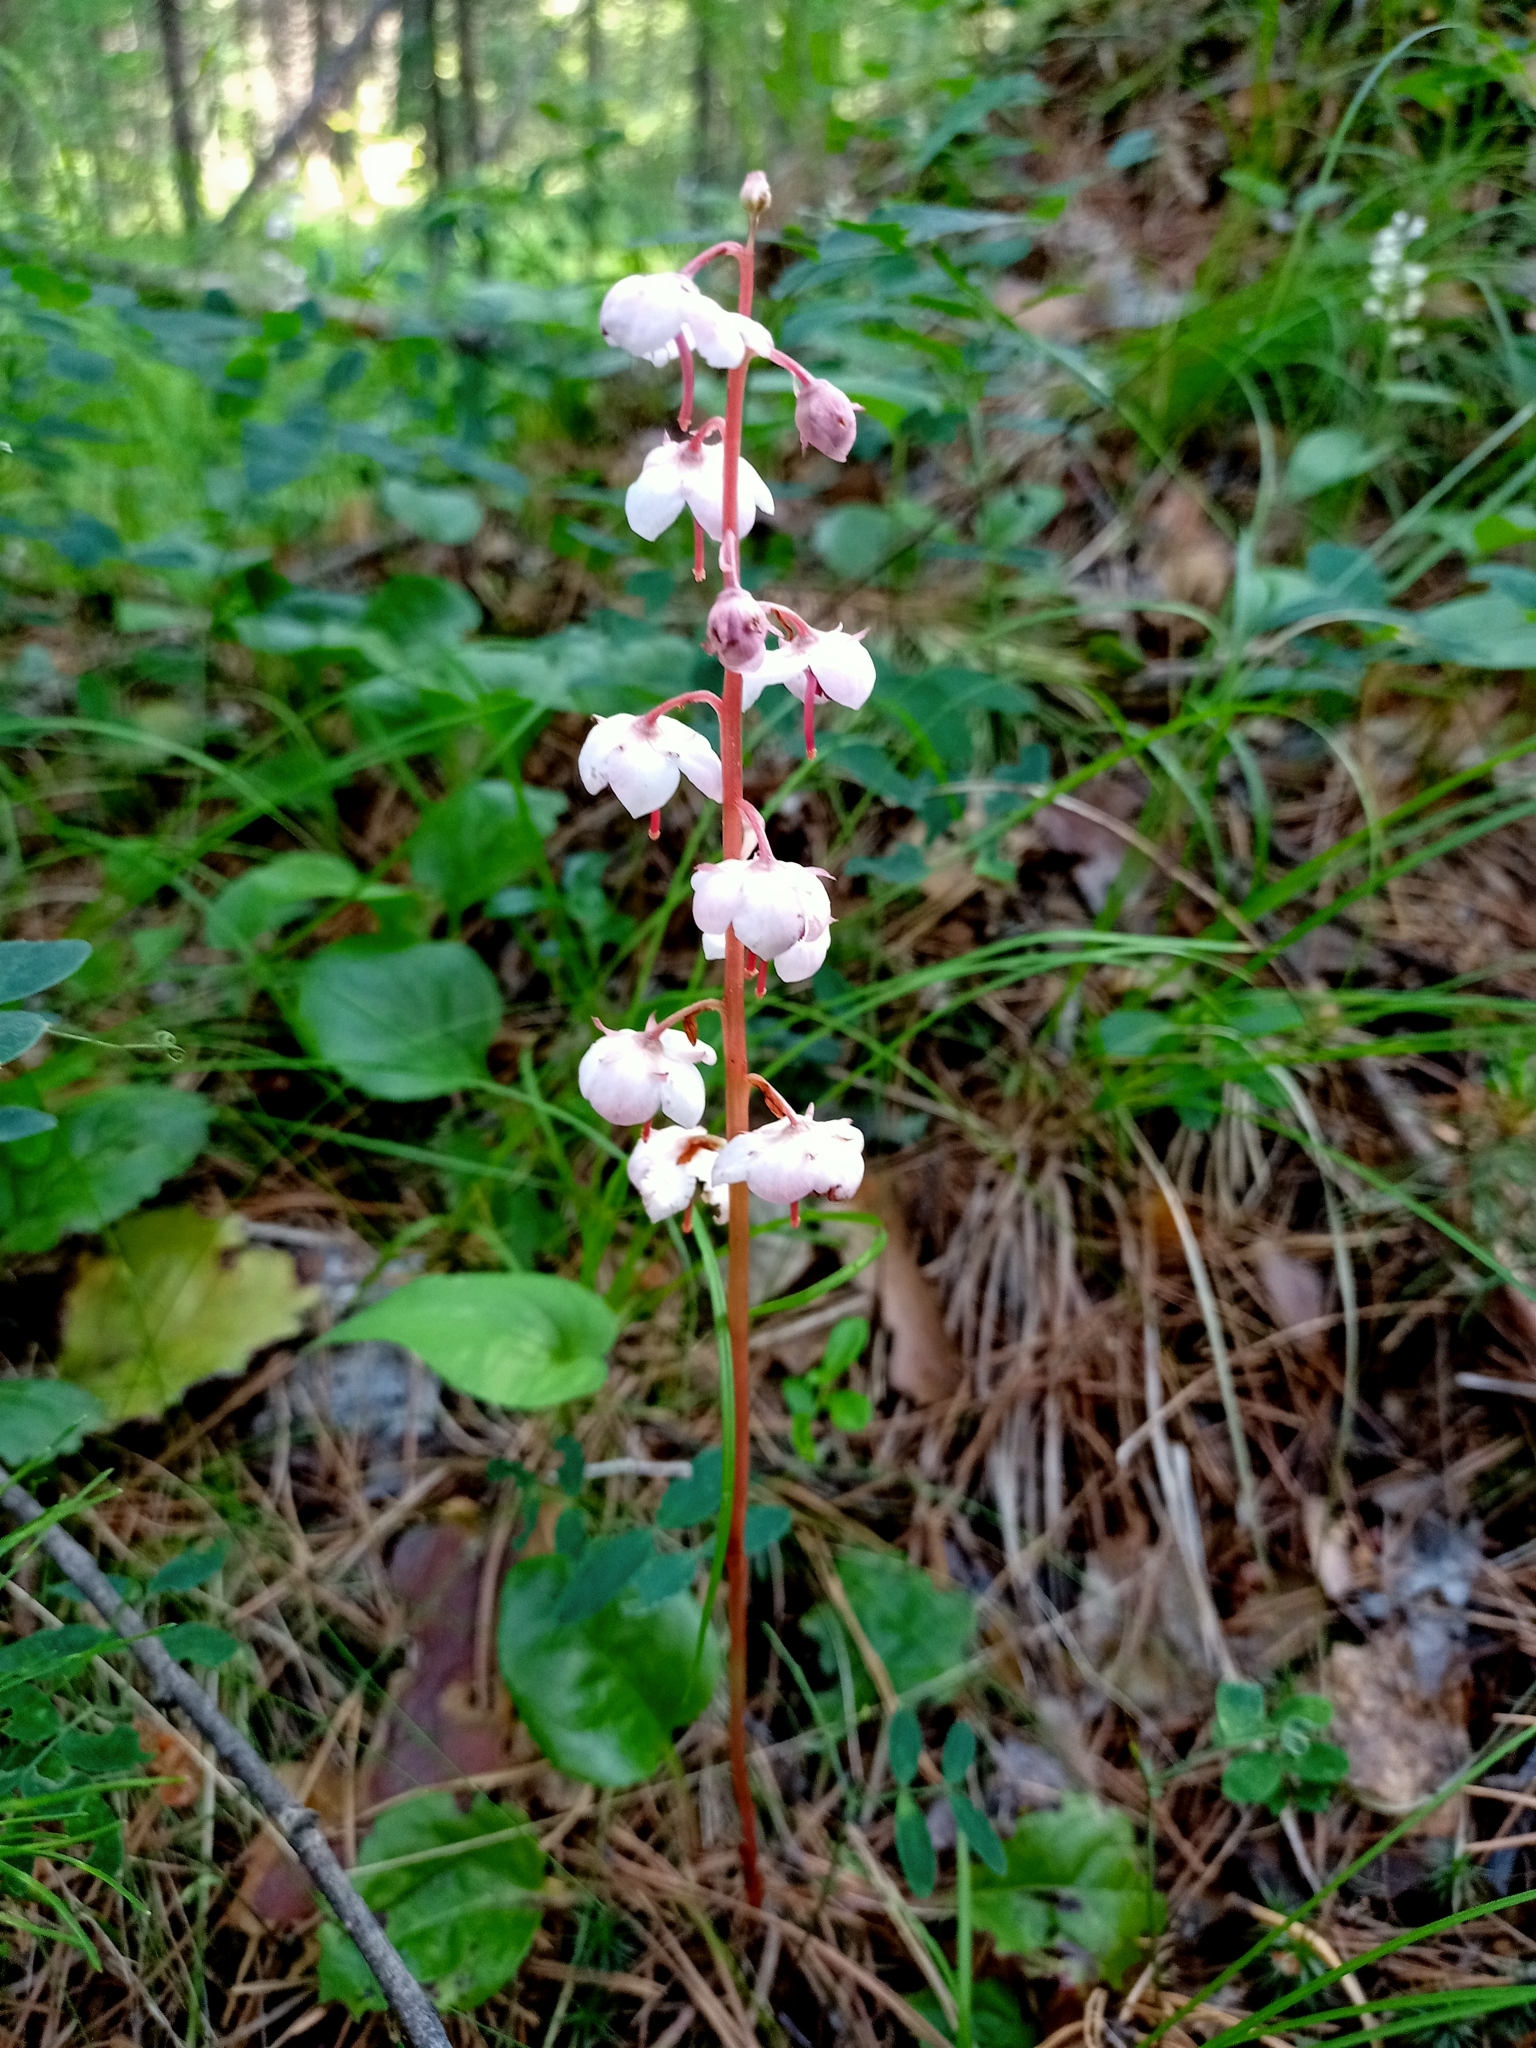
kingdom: Plantae
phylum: Tracheophyta
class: Magnoliopsida
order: Ericales
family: Ericaceae
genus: Pyrola
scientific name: Pyrola asarifolia
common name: Bog wintergreen
